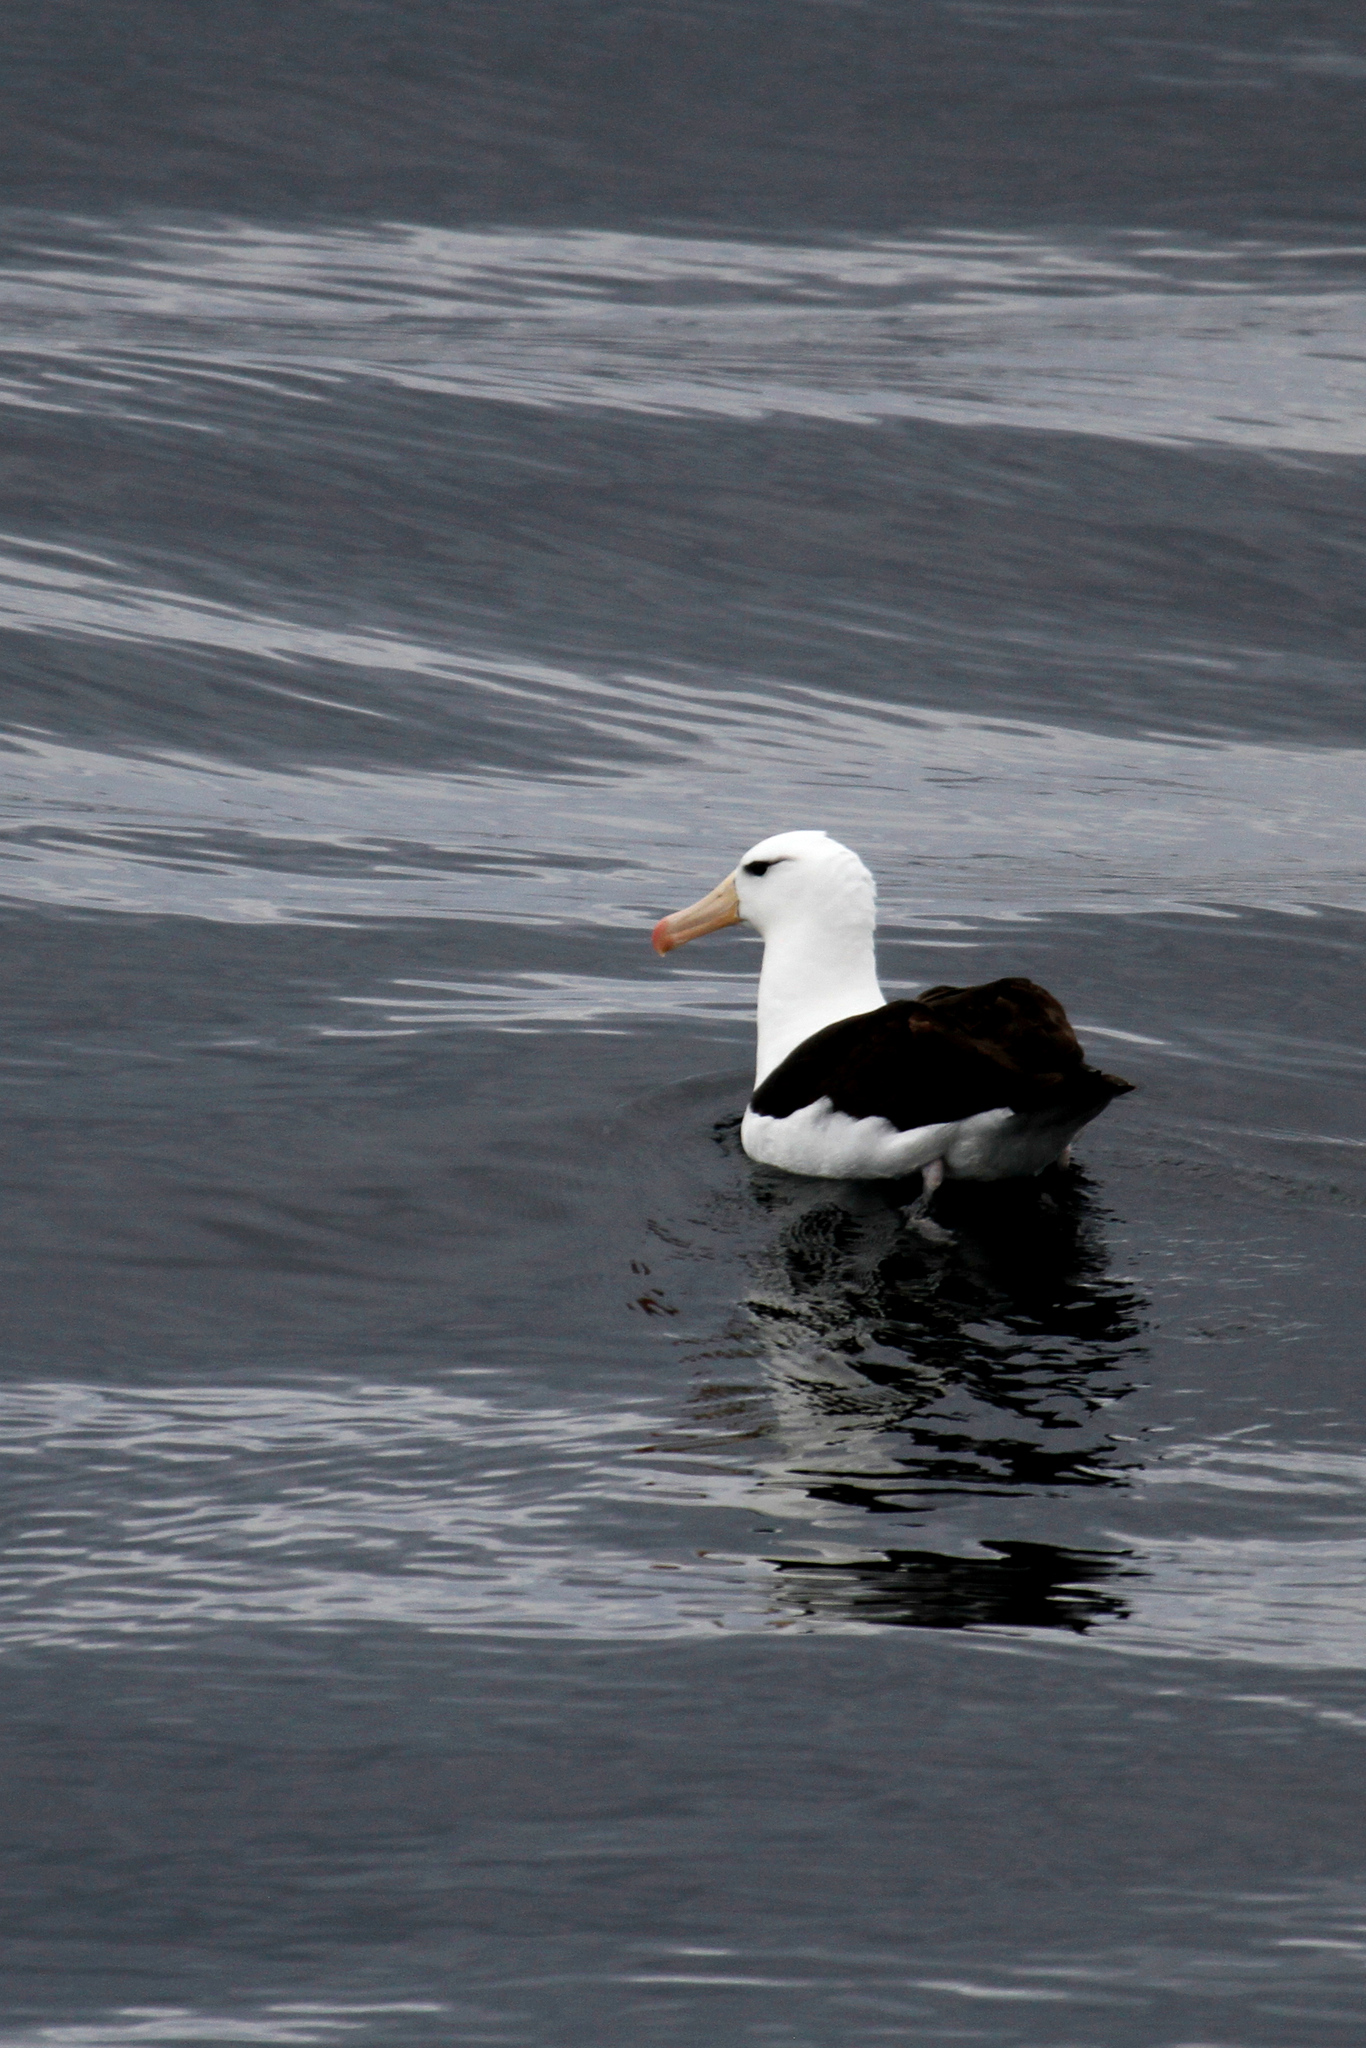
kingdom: Animalia
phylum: Chordata
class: Aves
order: Procellariiformes
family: Diomedeidae
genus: Thalassarche
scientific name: Thalassarche melanophris
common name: Black-browed albatross
